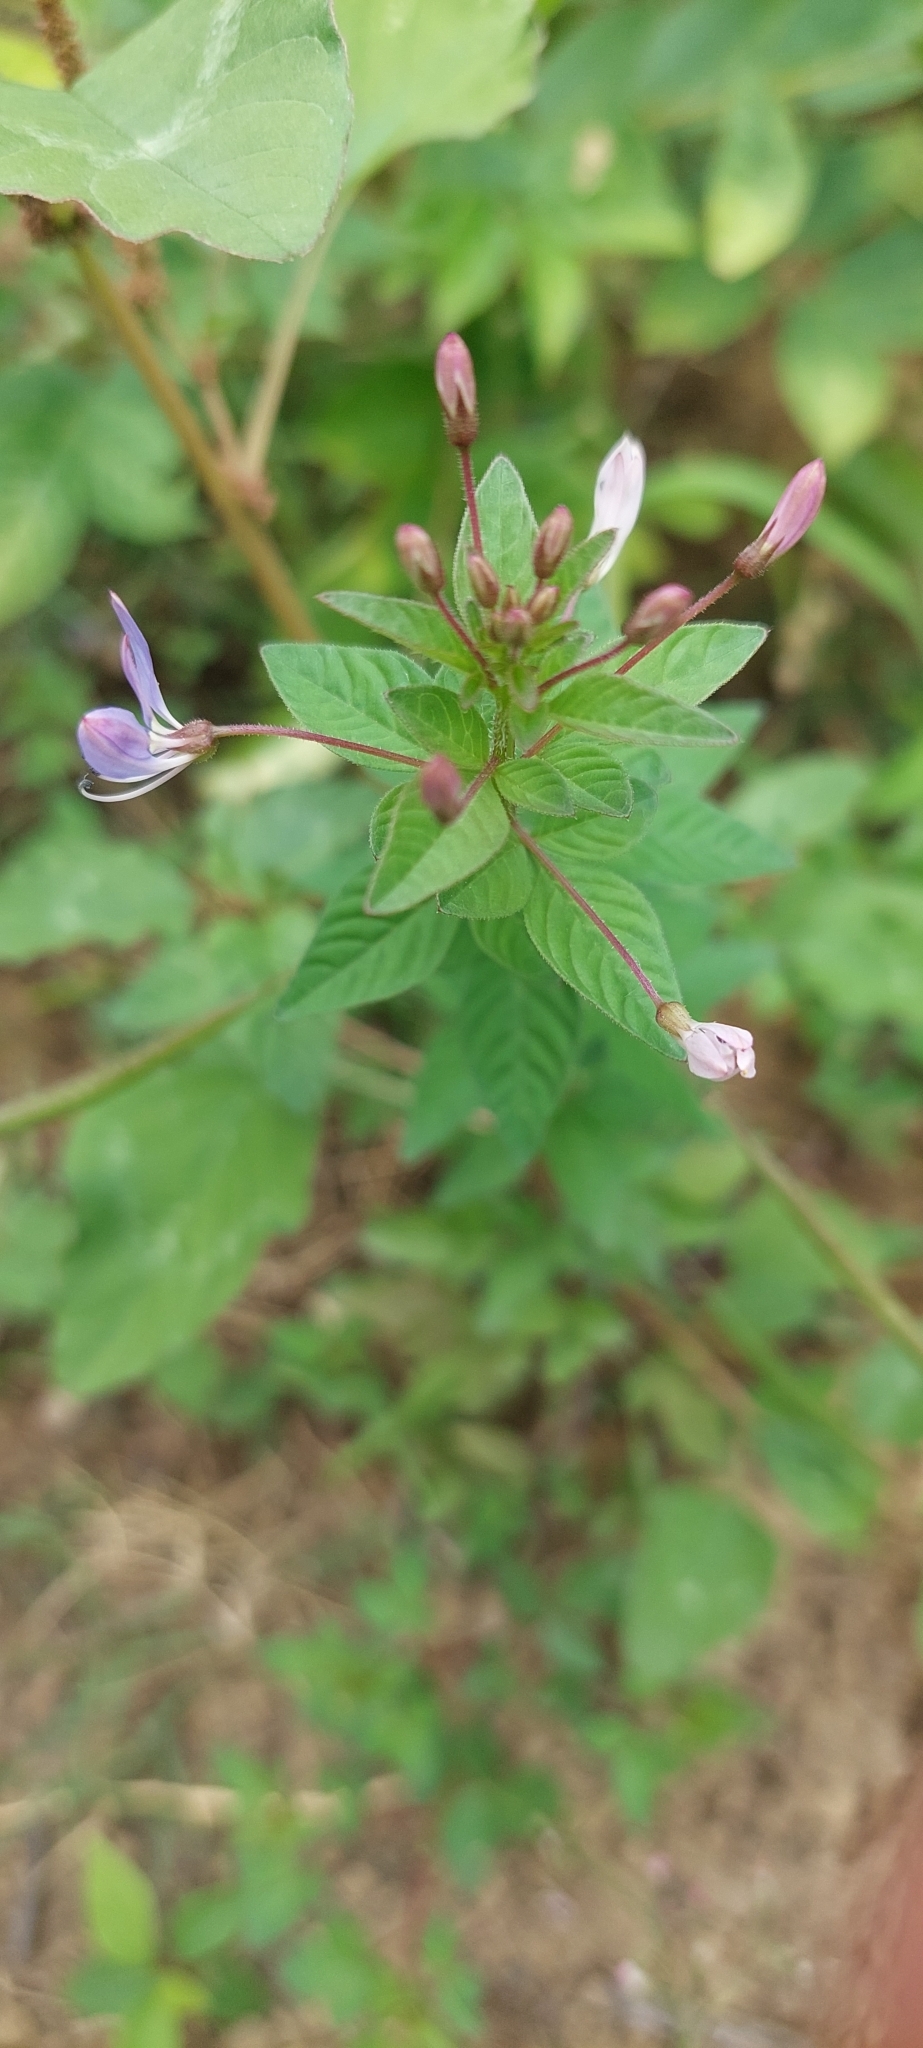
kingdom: Plantae
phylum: Tracheophyta
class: Magnoliopsida
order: Brassicales
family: Cleomaceae
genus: Sieruela
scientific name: Sieruela rutidosperma
